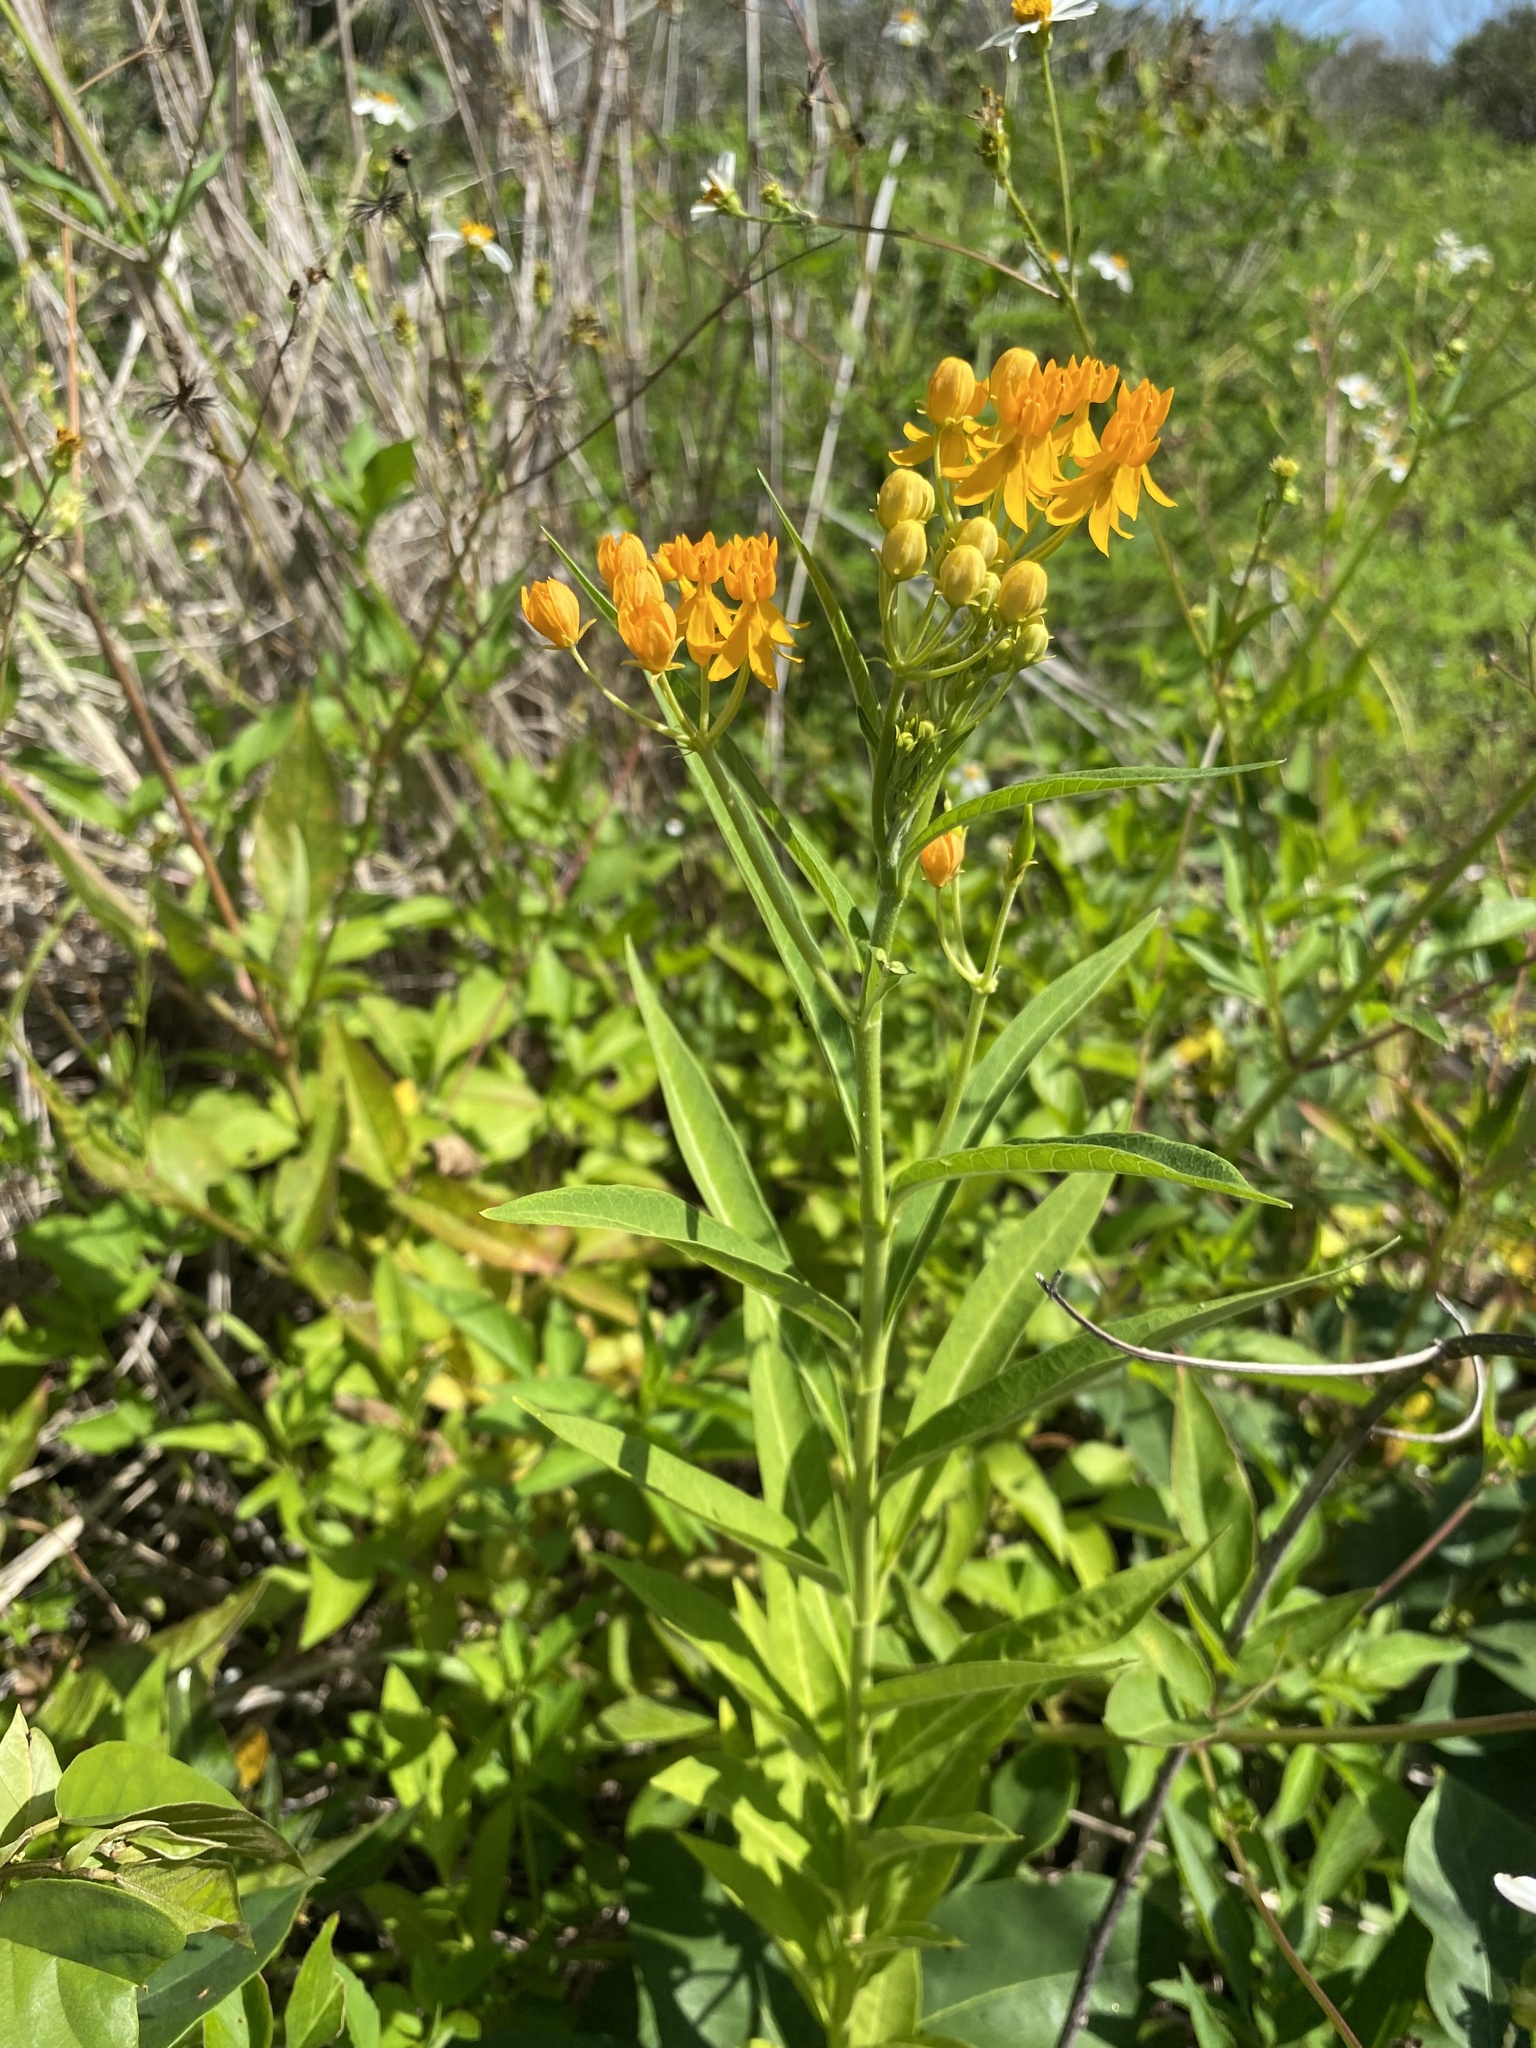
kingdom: Plantae
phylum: Tracheophyta
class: Magnoliopsida
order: Gentianales
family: Apocynaceae
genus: Asclepias
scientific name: Asclepias curassavica
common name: Bloodflower
